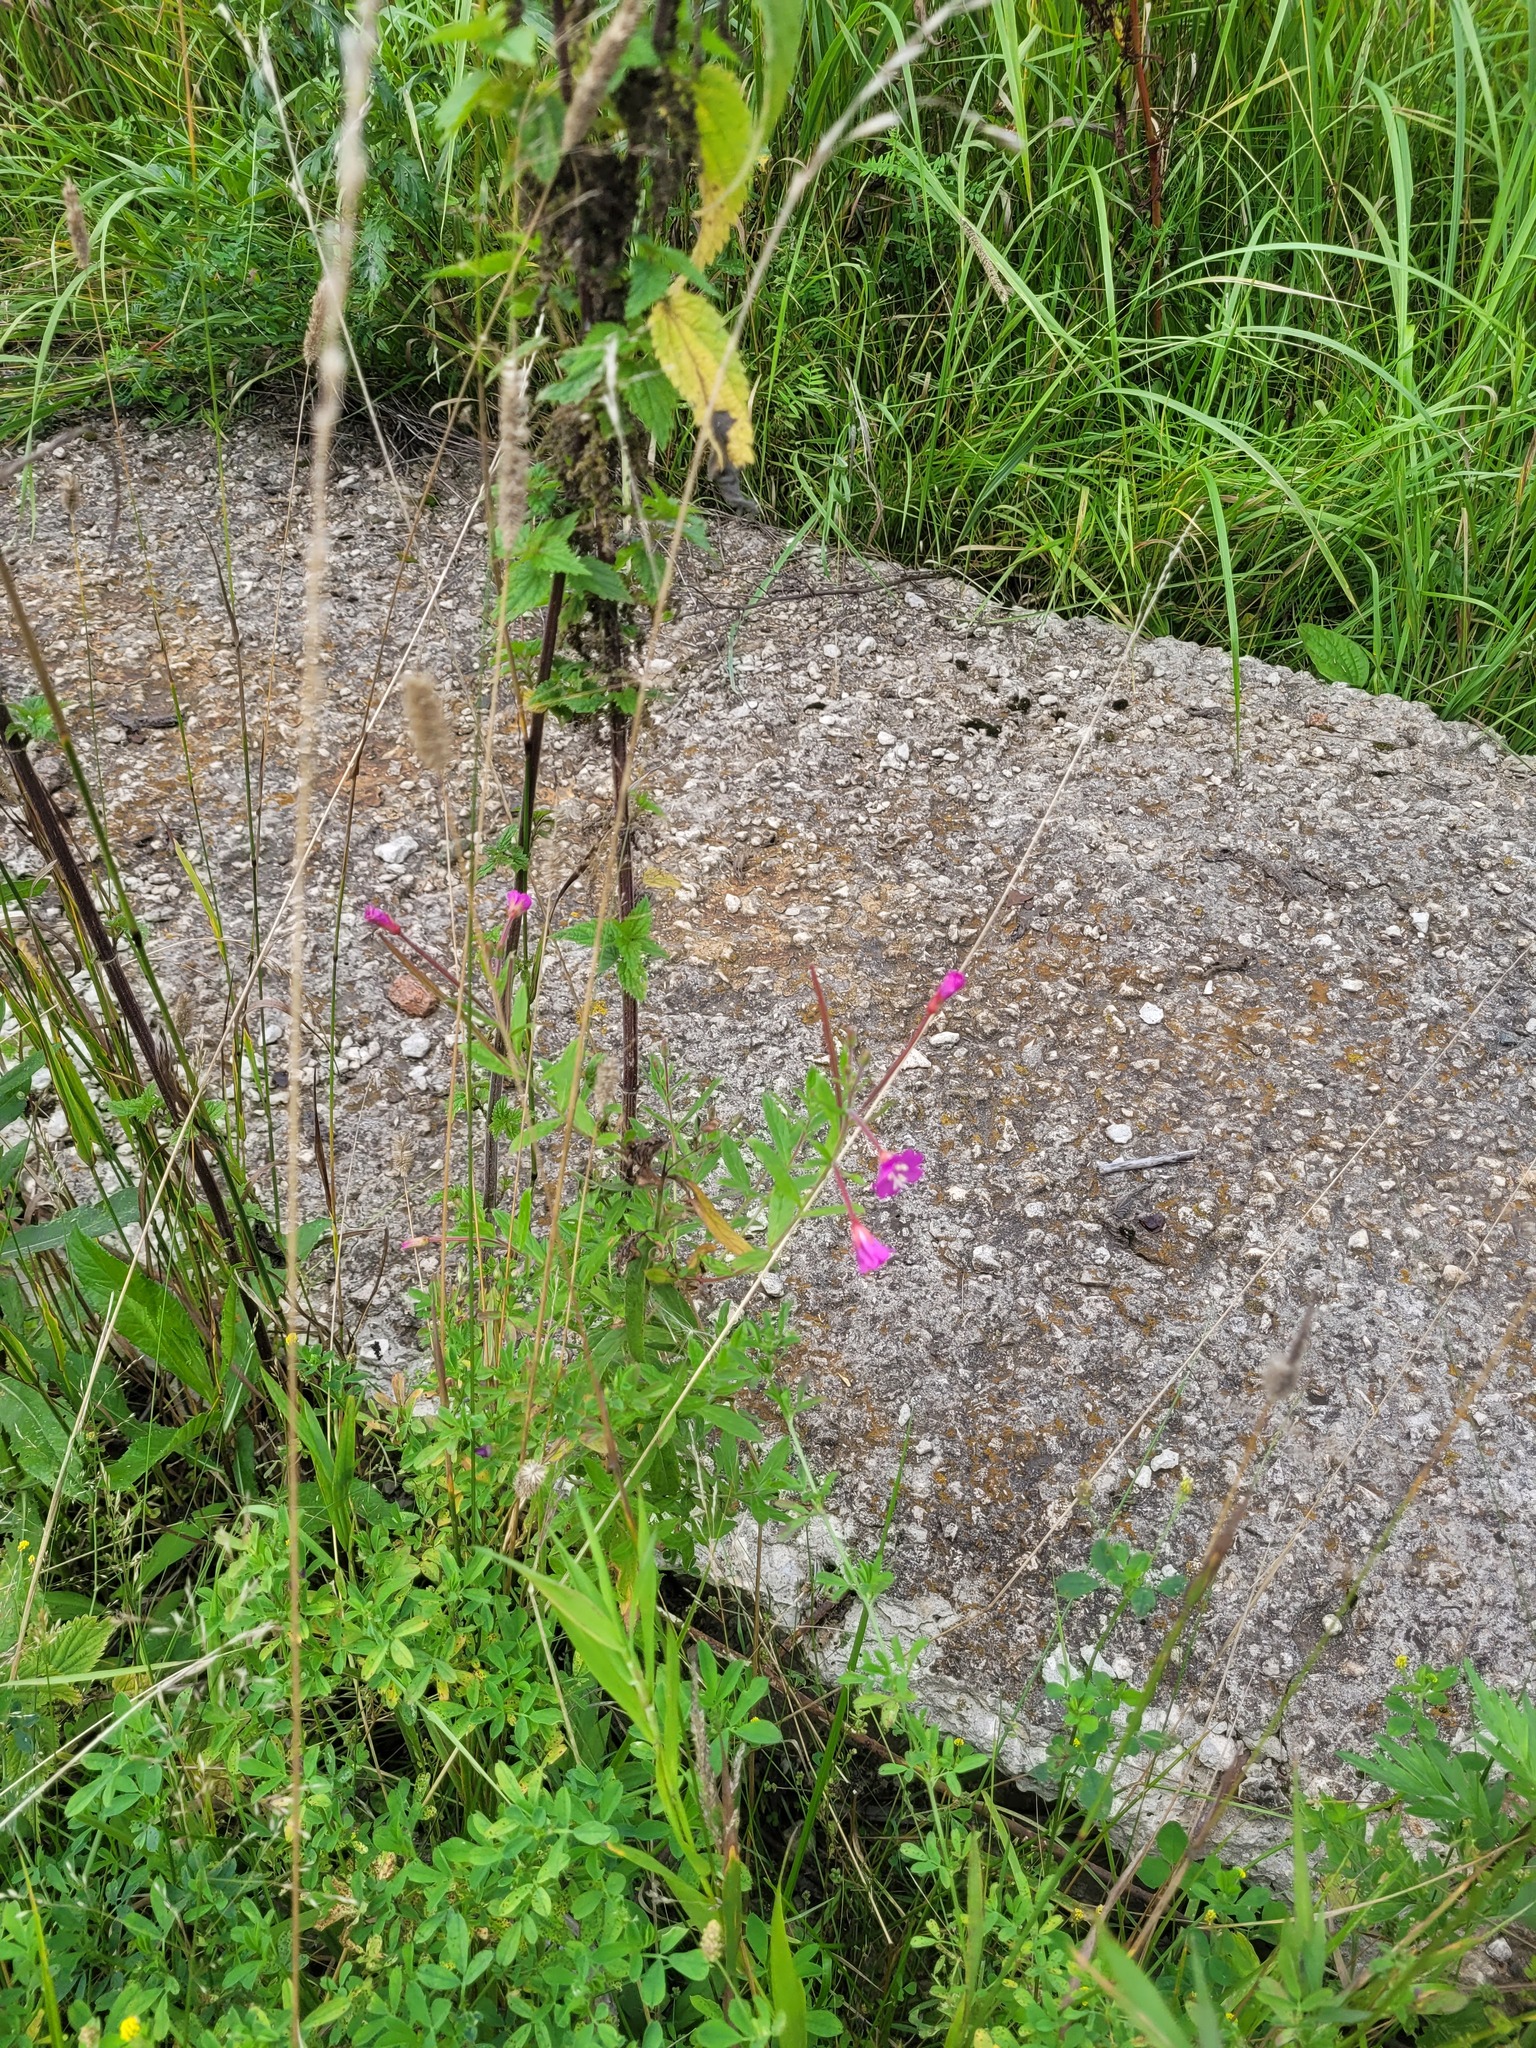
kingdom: Plantae
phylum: Tracheophyta
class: Magnoliopsida
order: Myrtales
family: Onagraceae
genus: Epilobium
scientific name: Epilobium hirsutum
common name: Great willowherb
